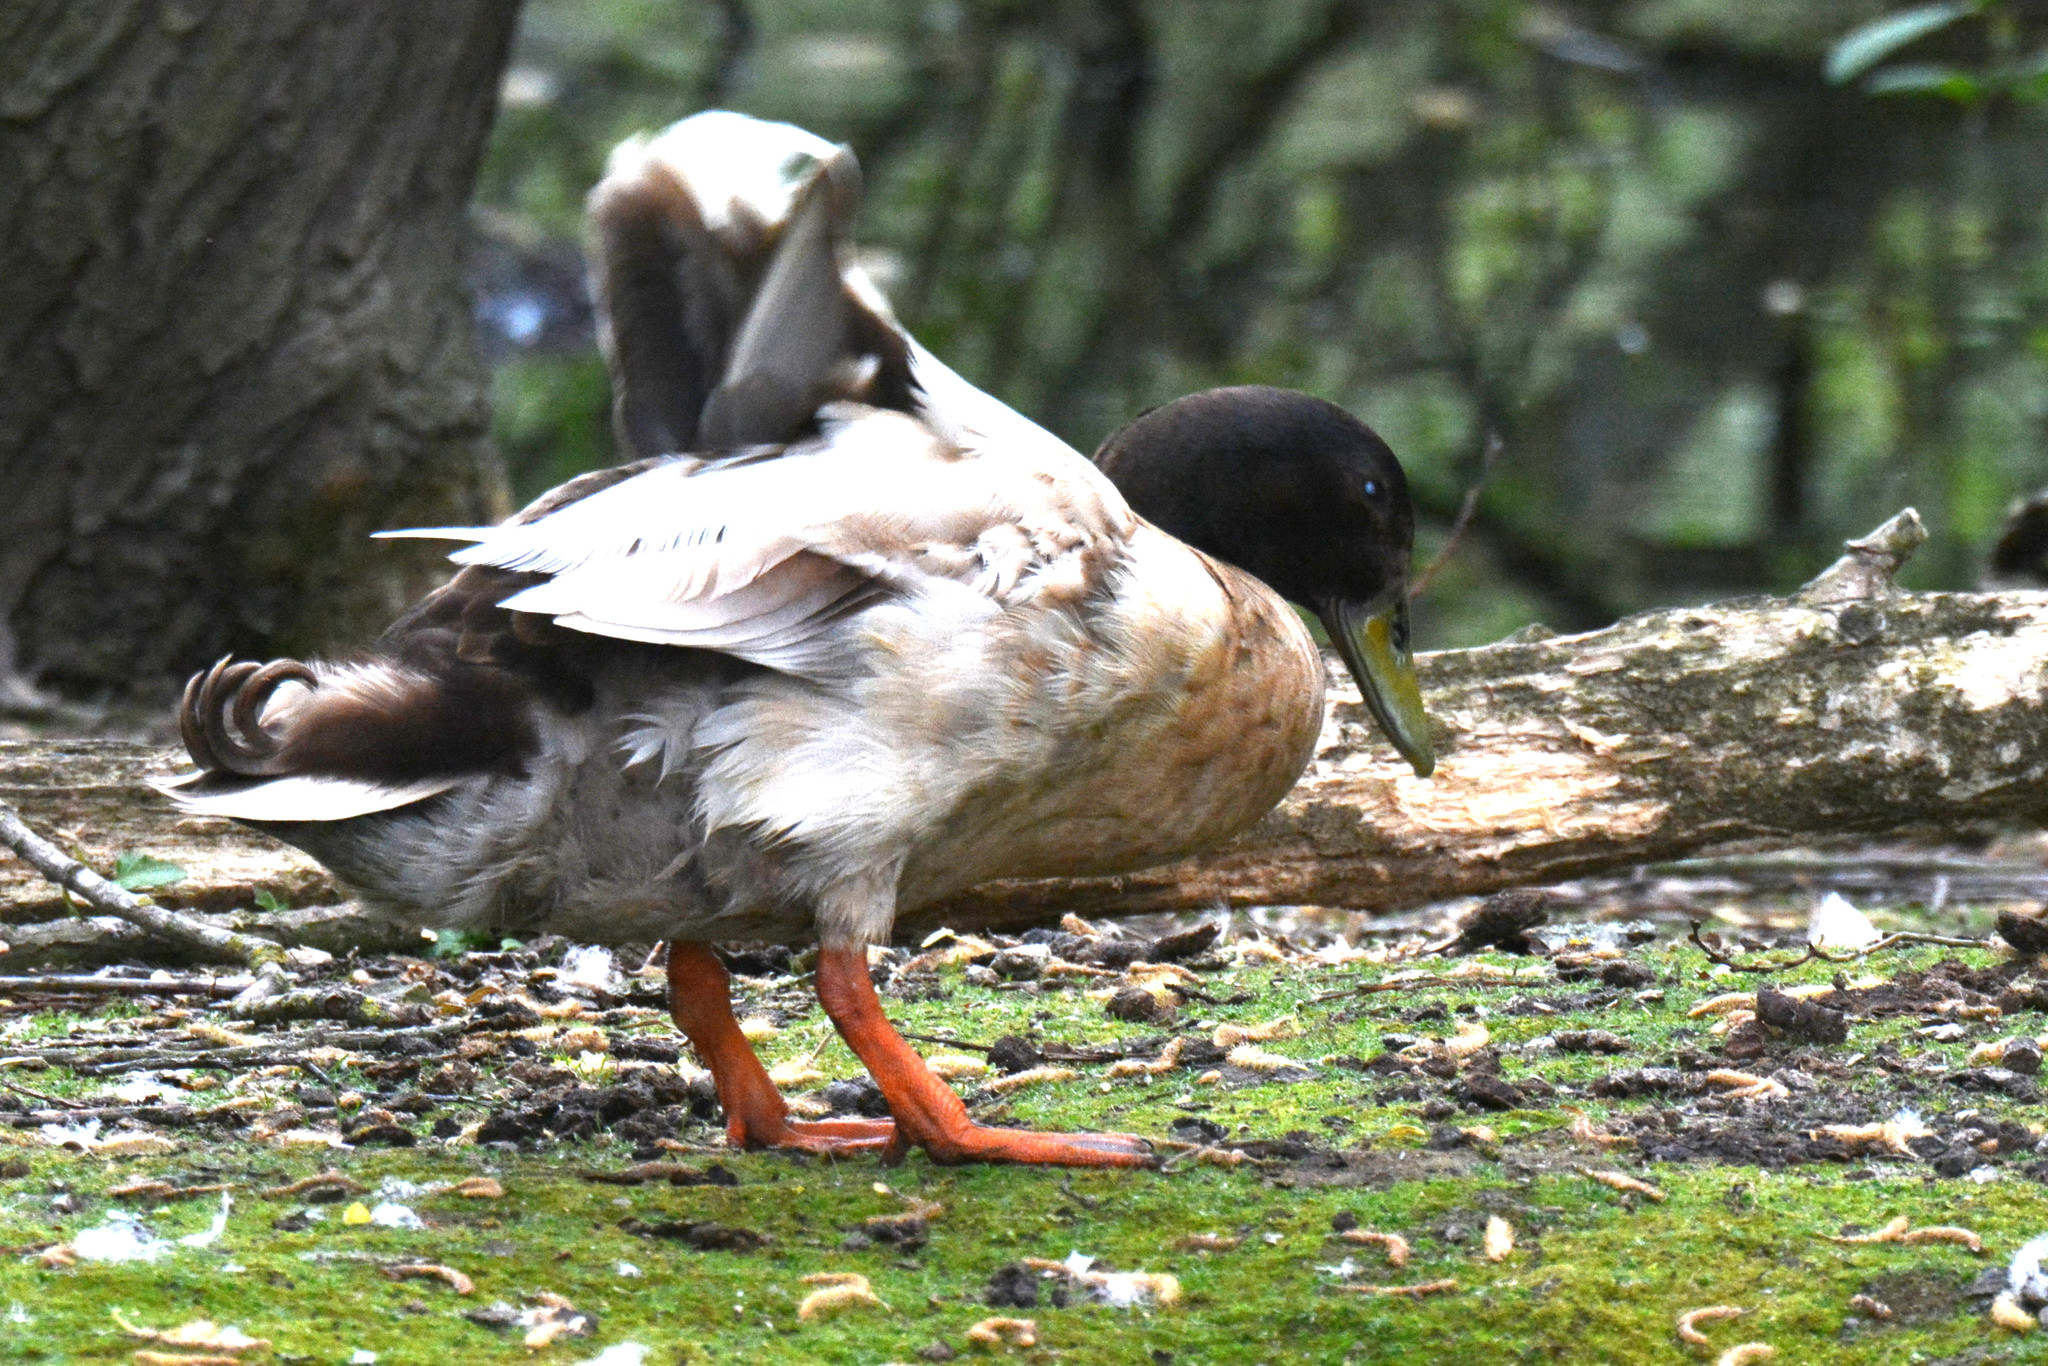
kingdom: Animalia
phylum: Chordata
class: Aves
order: Anseriformes
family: Anatidae
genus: Anas
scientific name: Anas platyrhynchos
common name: Mallard
